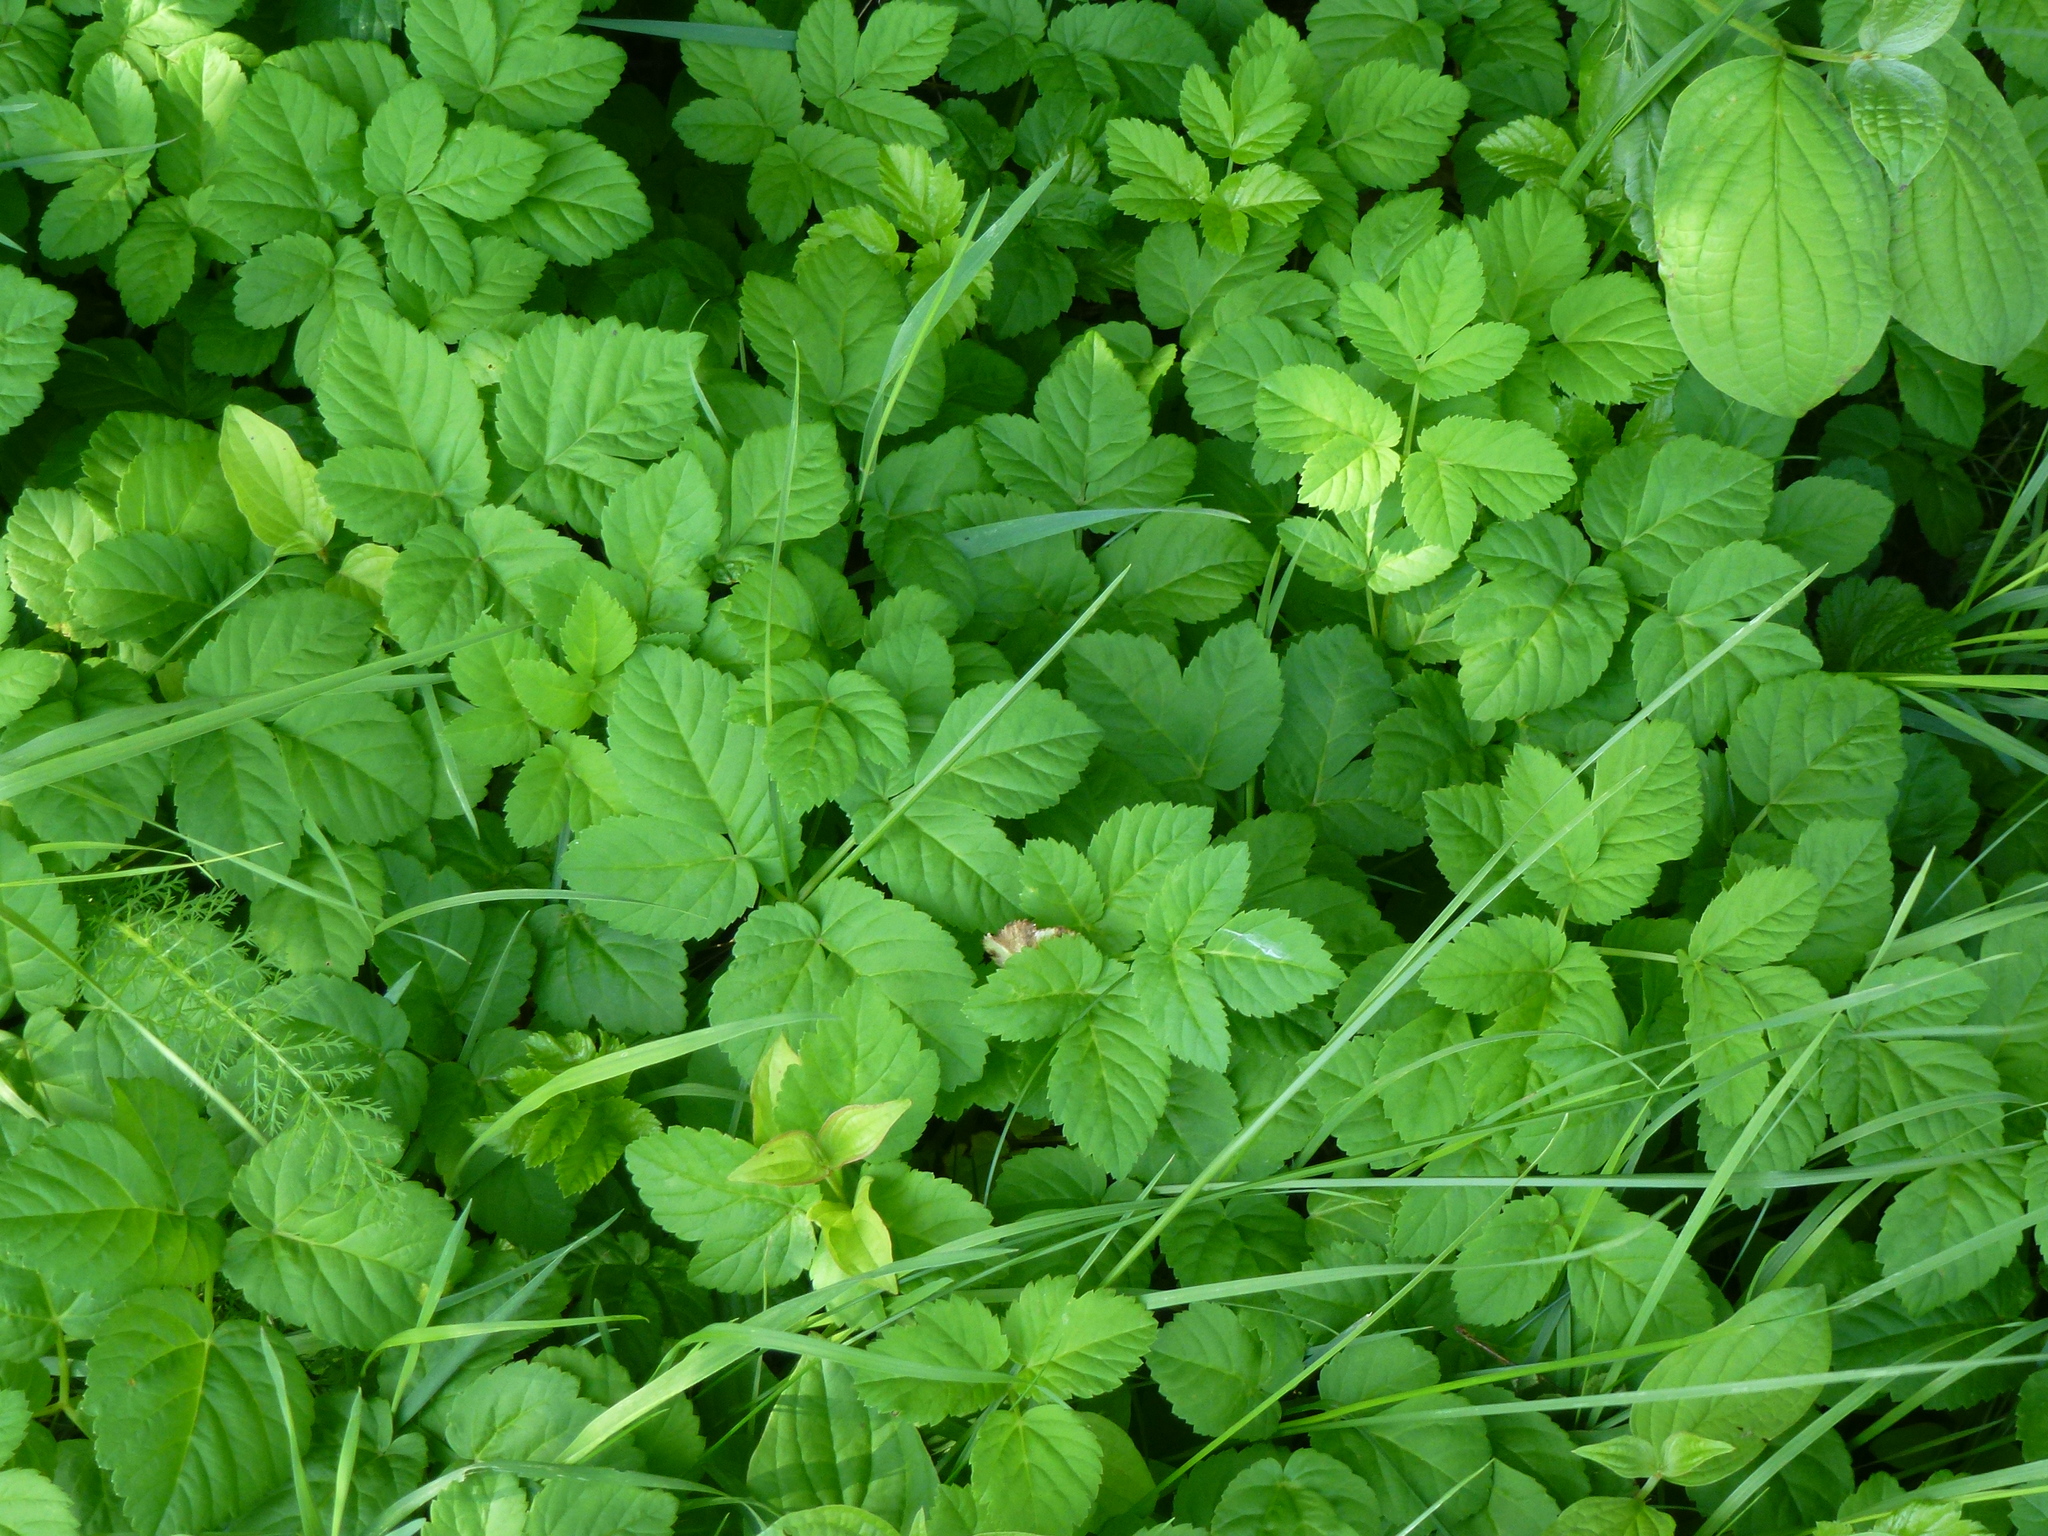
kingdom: Plantae
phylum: Tracheophyta
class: Magnoliopsida
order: Apiales
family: Apiaceae
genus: Aegopodium
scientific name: Aegopodium podagraria
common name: Ground-elder
